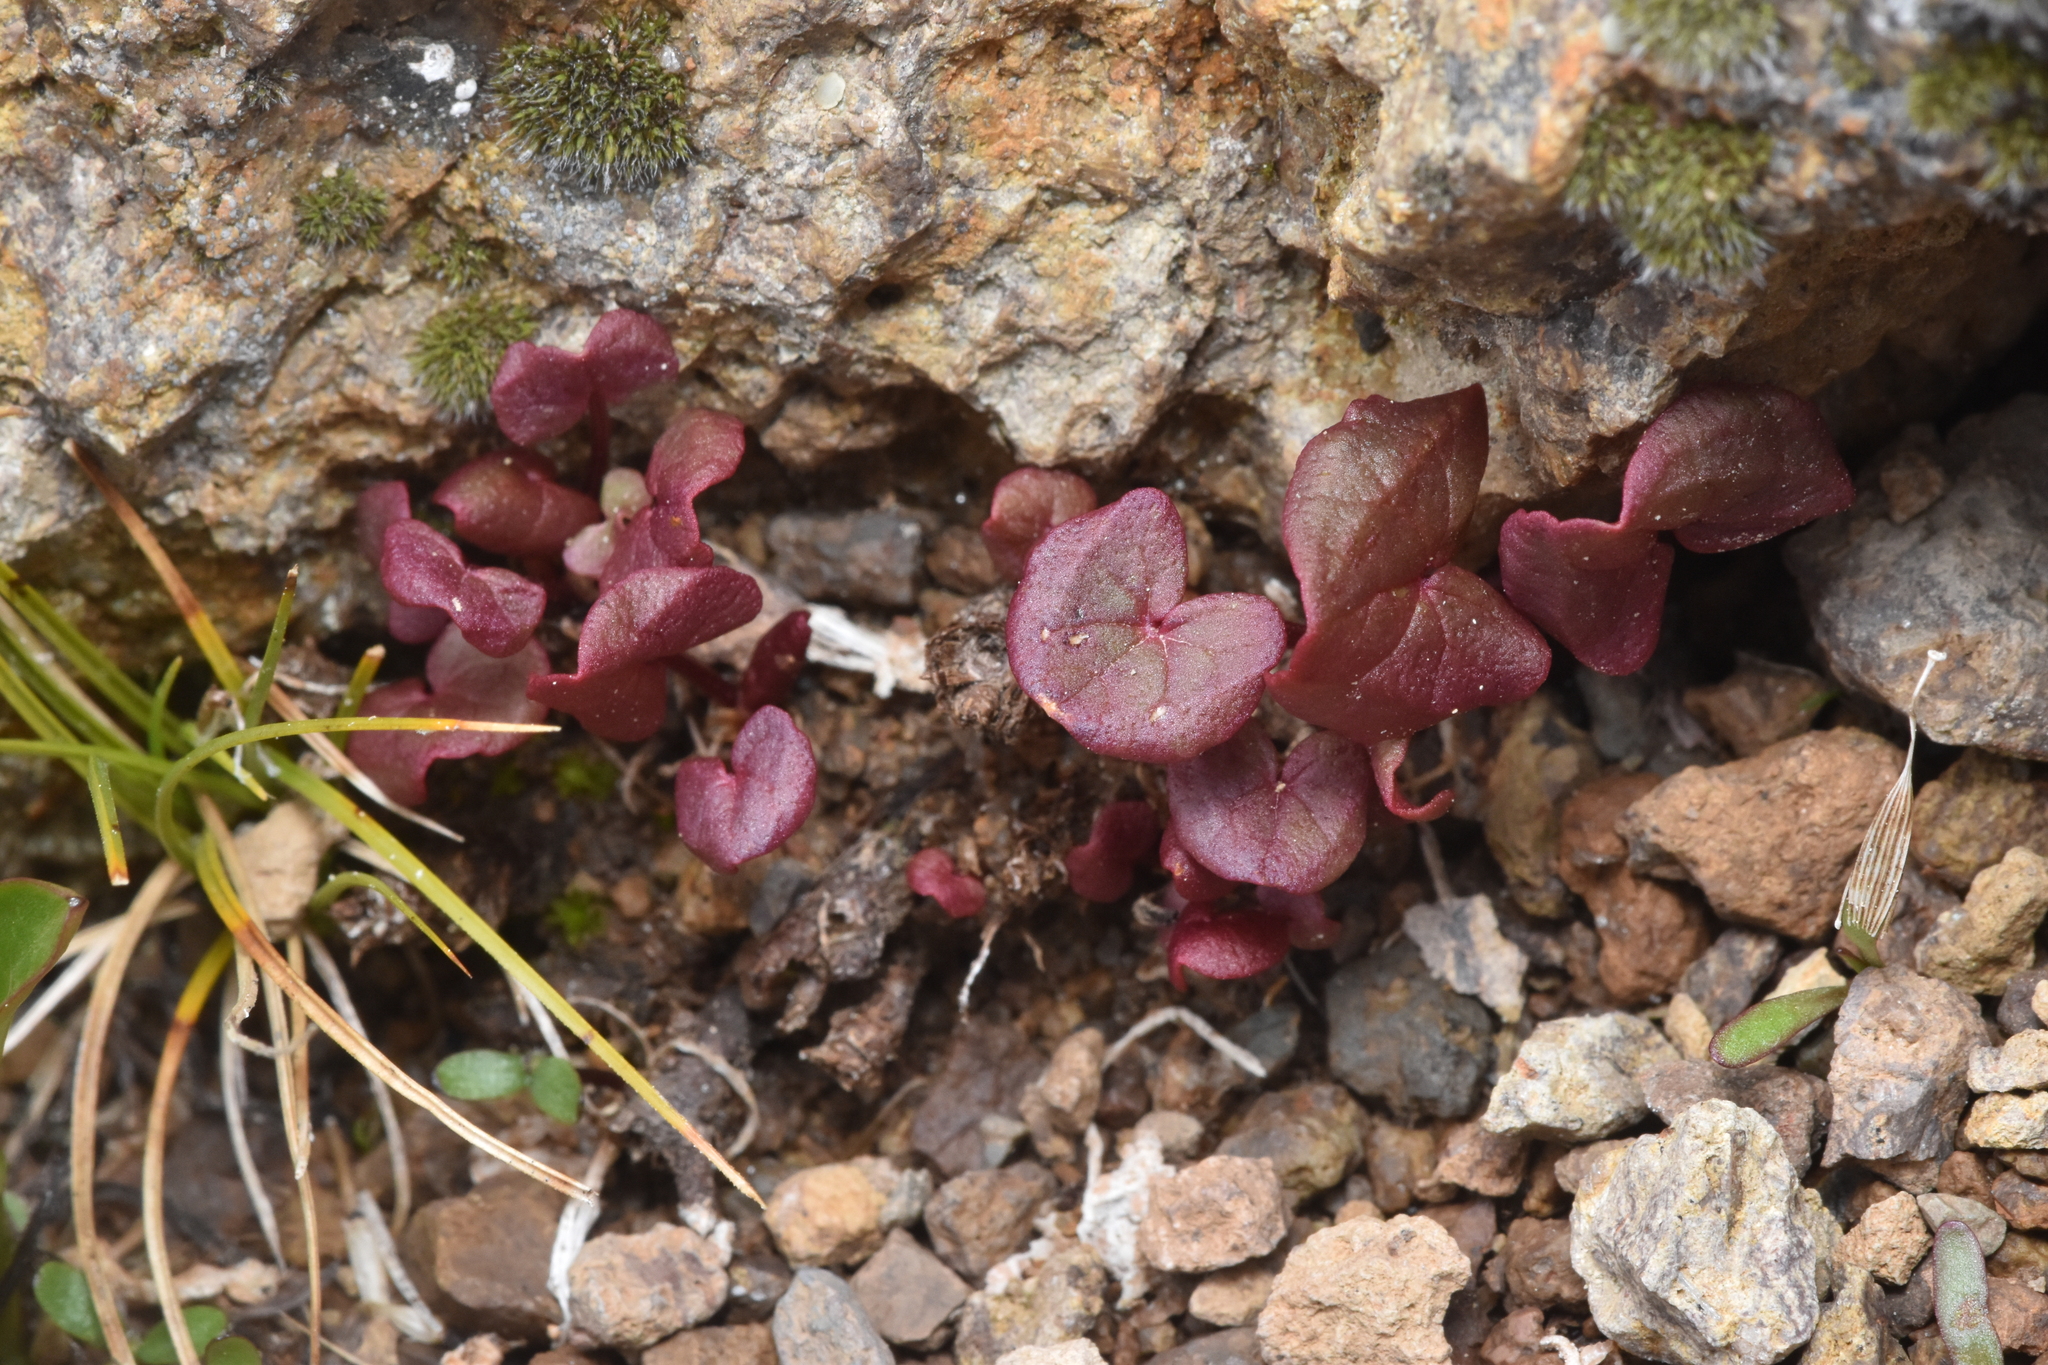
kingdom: Plantae
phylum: Tracheophyta
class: Magnoliopsida
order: Caryophyllales
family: Polygonaceae
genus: Oxyria
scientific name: Oxyria digyna
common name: Alpine mountain-sorrel
